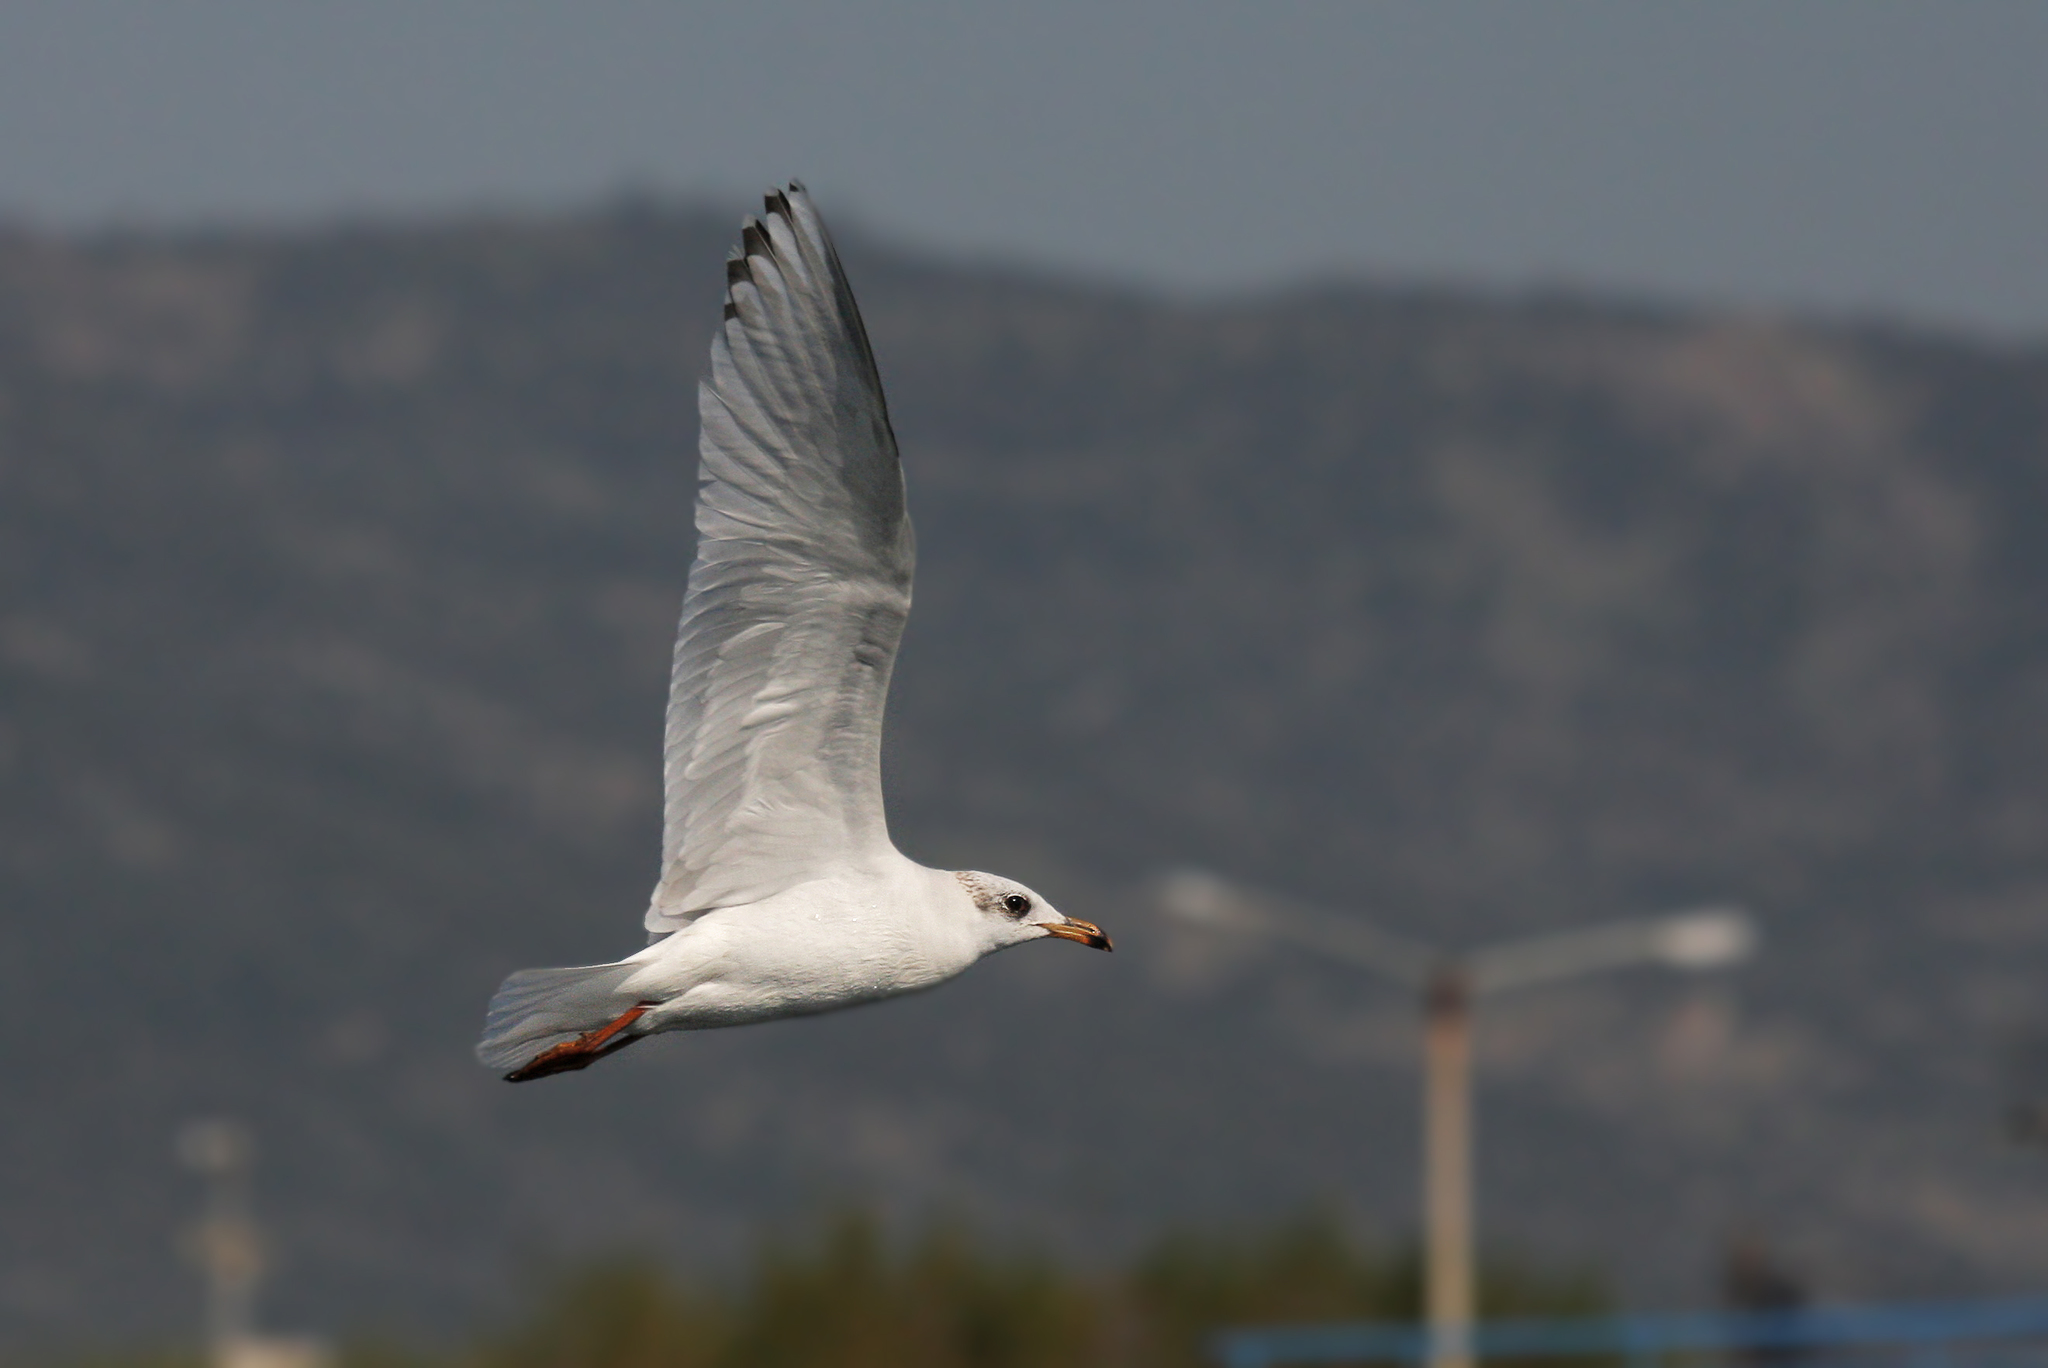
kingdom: Animalia
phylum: Chordata
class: Aves
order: Charadriiformes
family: Laridae
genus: Ichthyaetus
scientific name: Ichthyaetus melanocephalus
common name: Mediterranean gull
